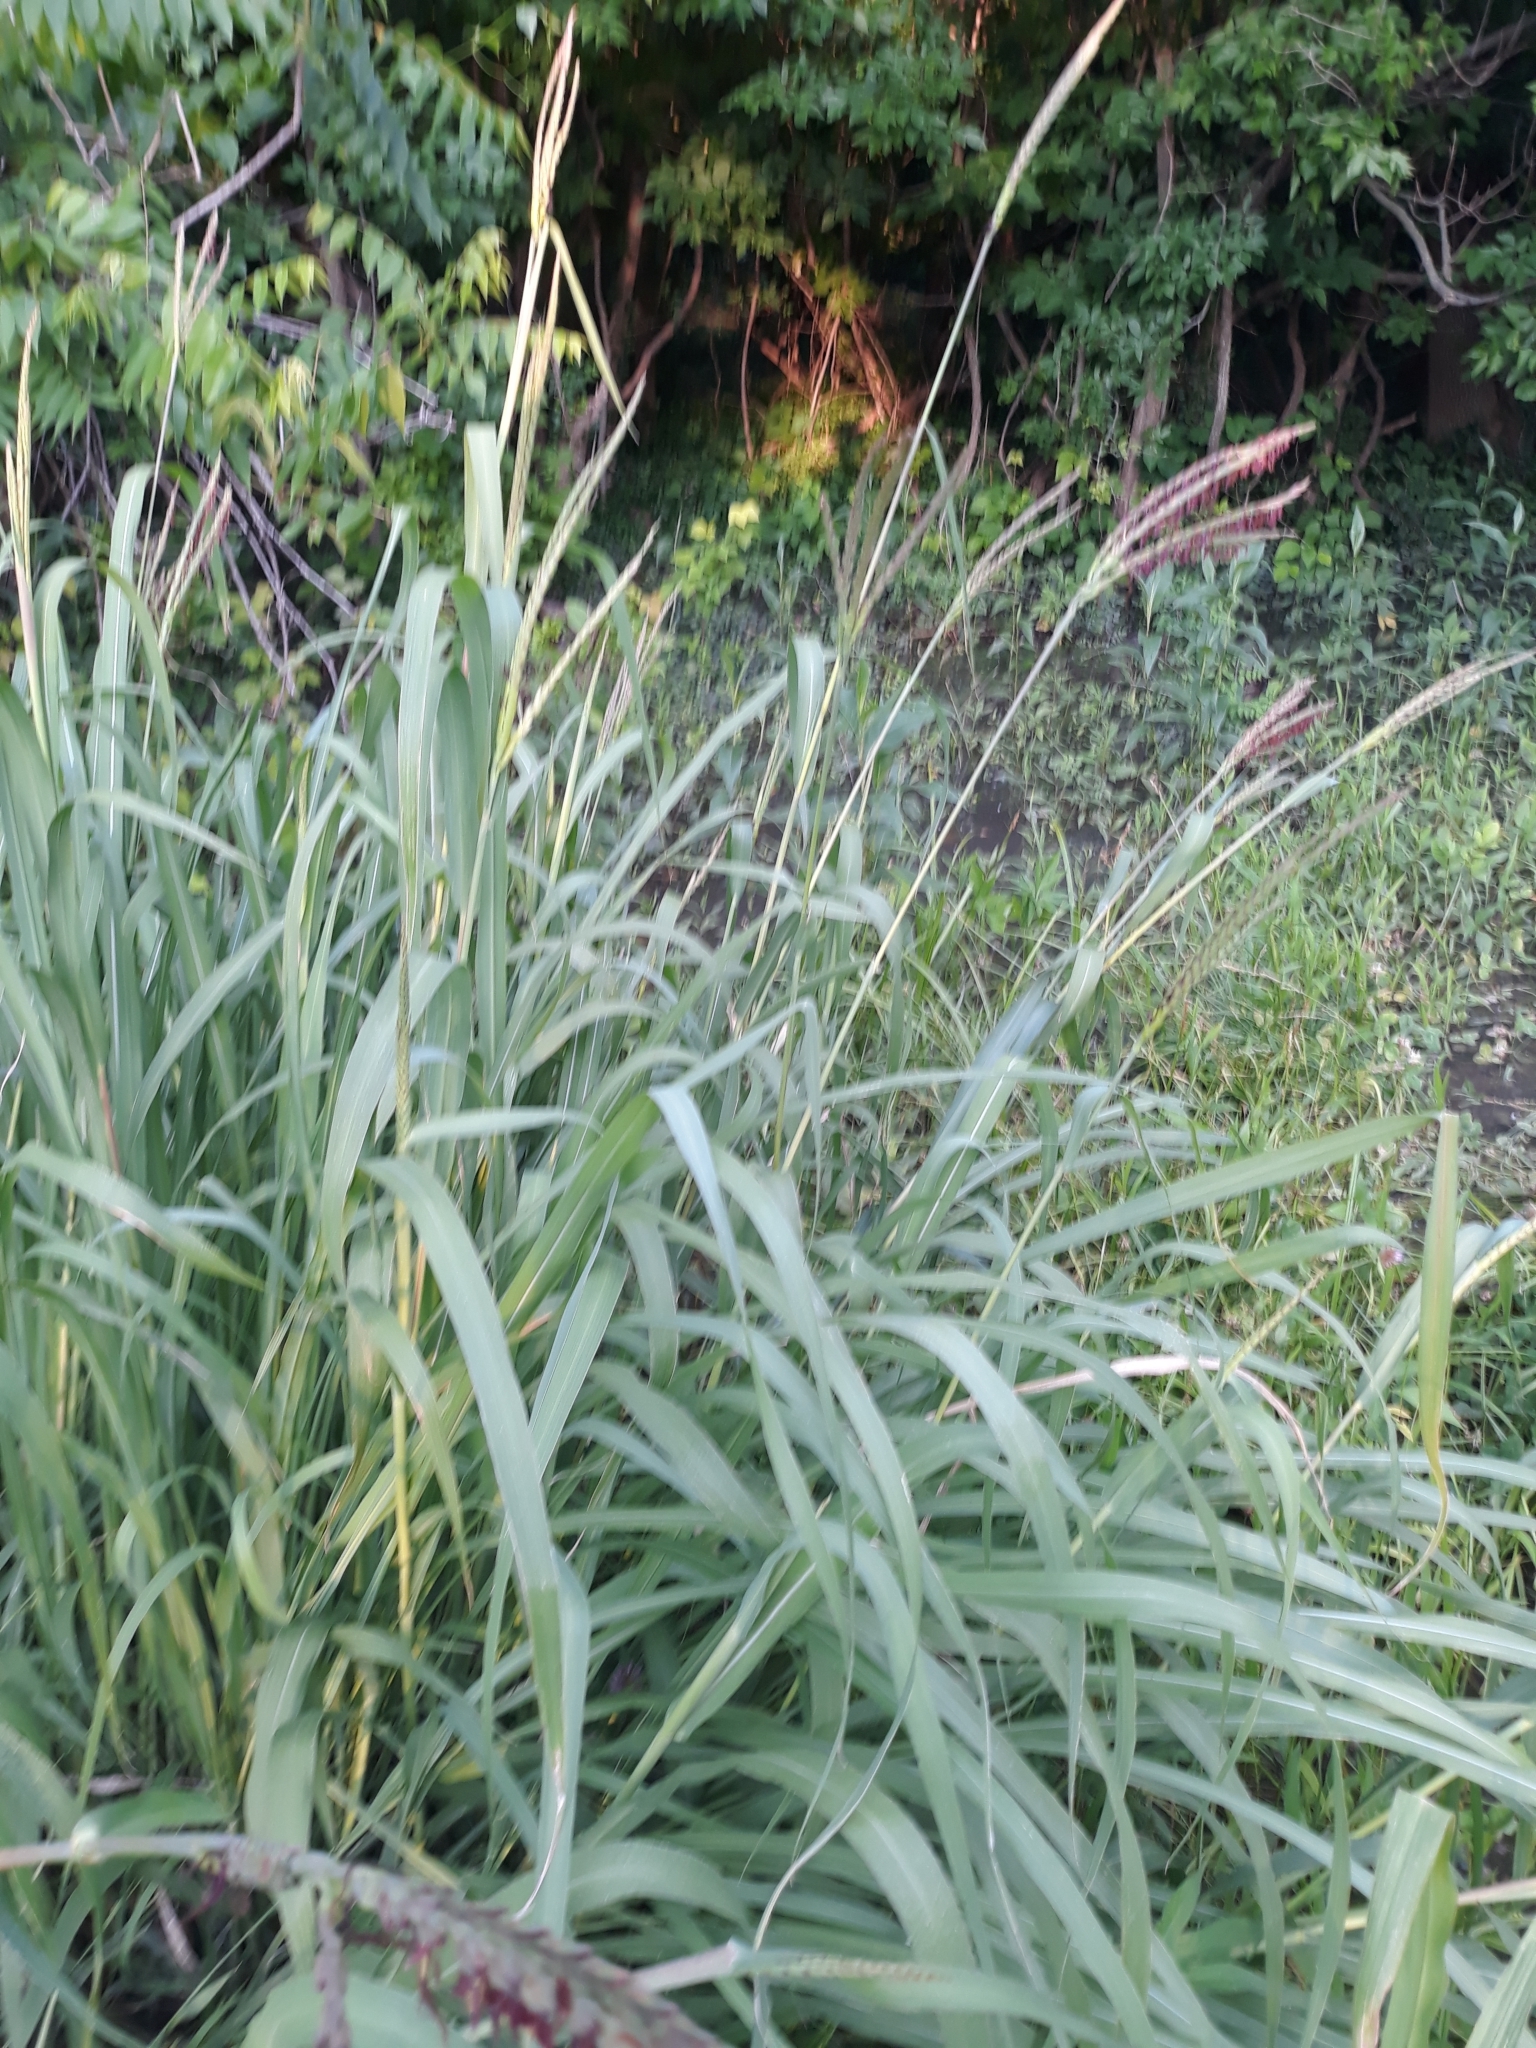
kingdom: Plantae
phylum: Tracheophyta
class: Liliopsida
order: Poales
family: Poaceae
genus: Tripsacum
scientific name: Tripsacum dactyloides
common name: Buffalo-grass
